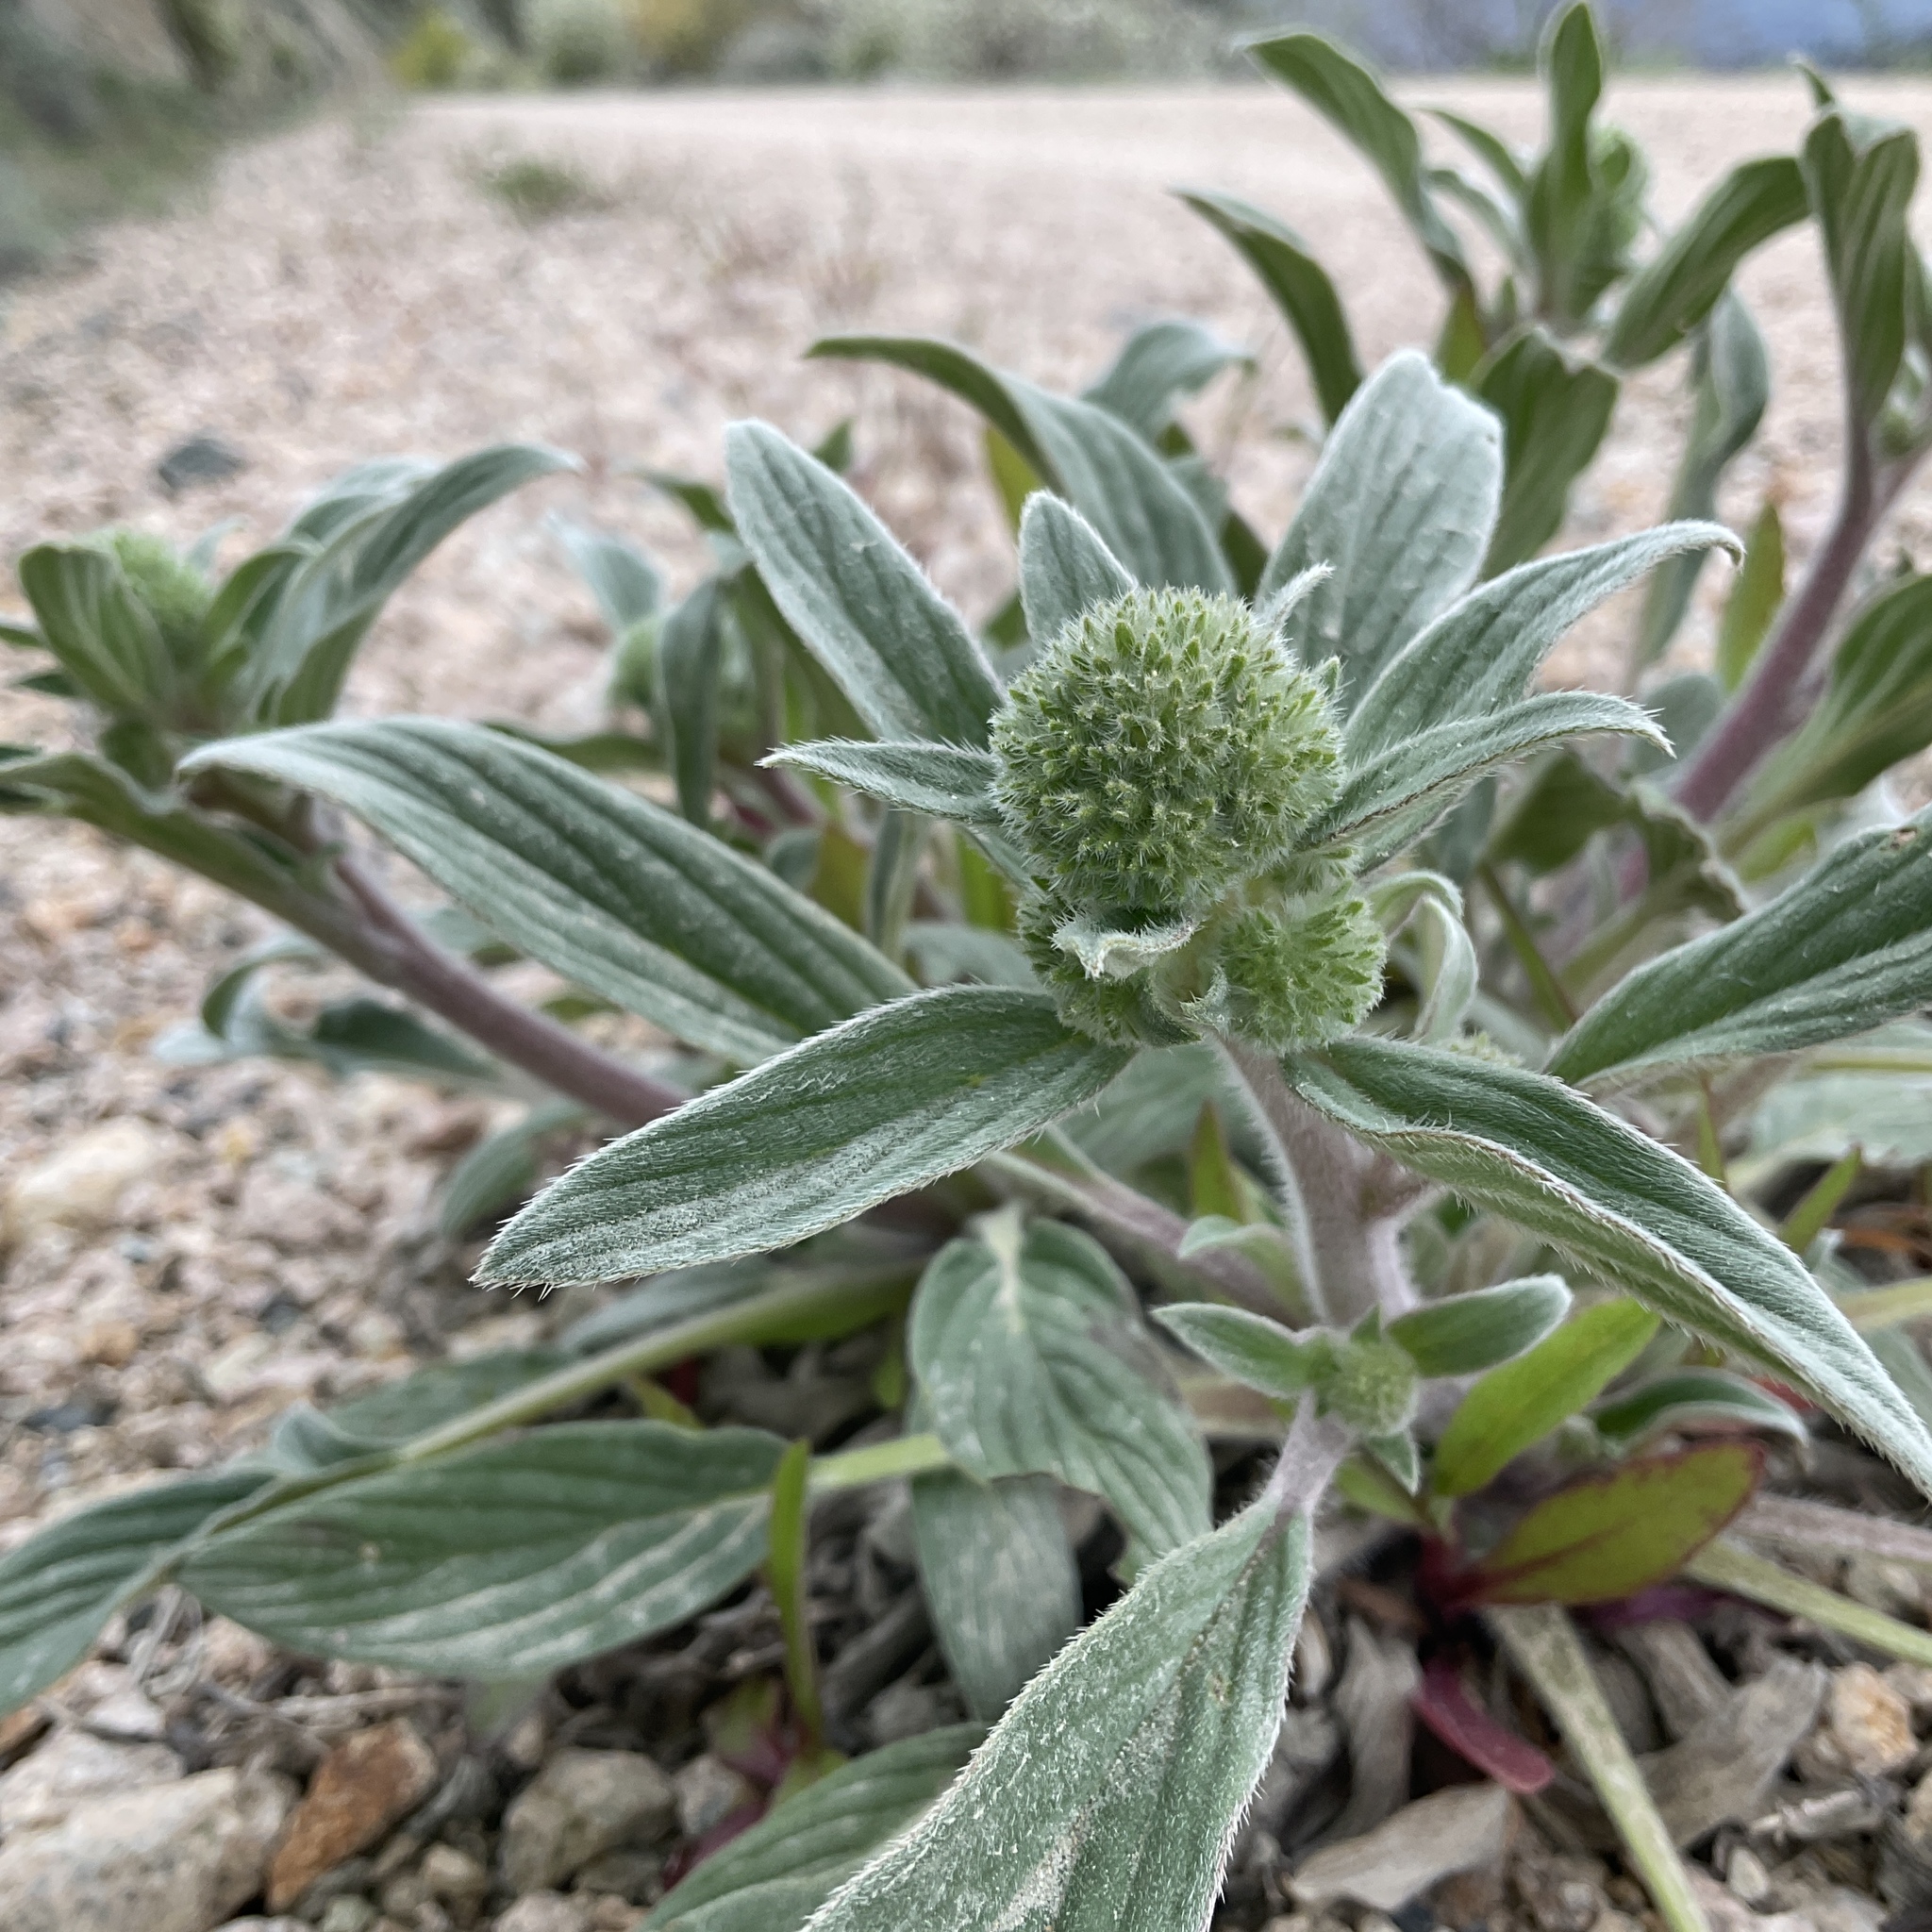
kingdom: Plantae
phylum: Tracheophyta
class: Magnoliopsida
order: Boraginales
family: Hydrophyllaceae
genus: Phacelia
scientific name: Phacelia hastata
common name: Silver-leaved phacelia
